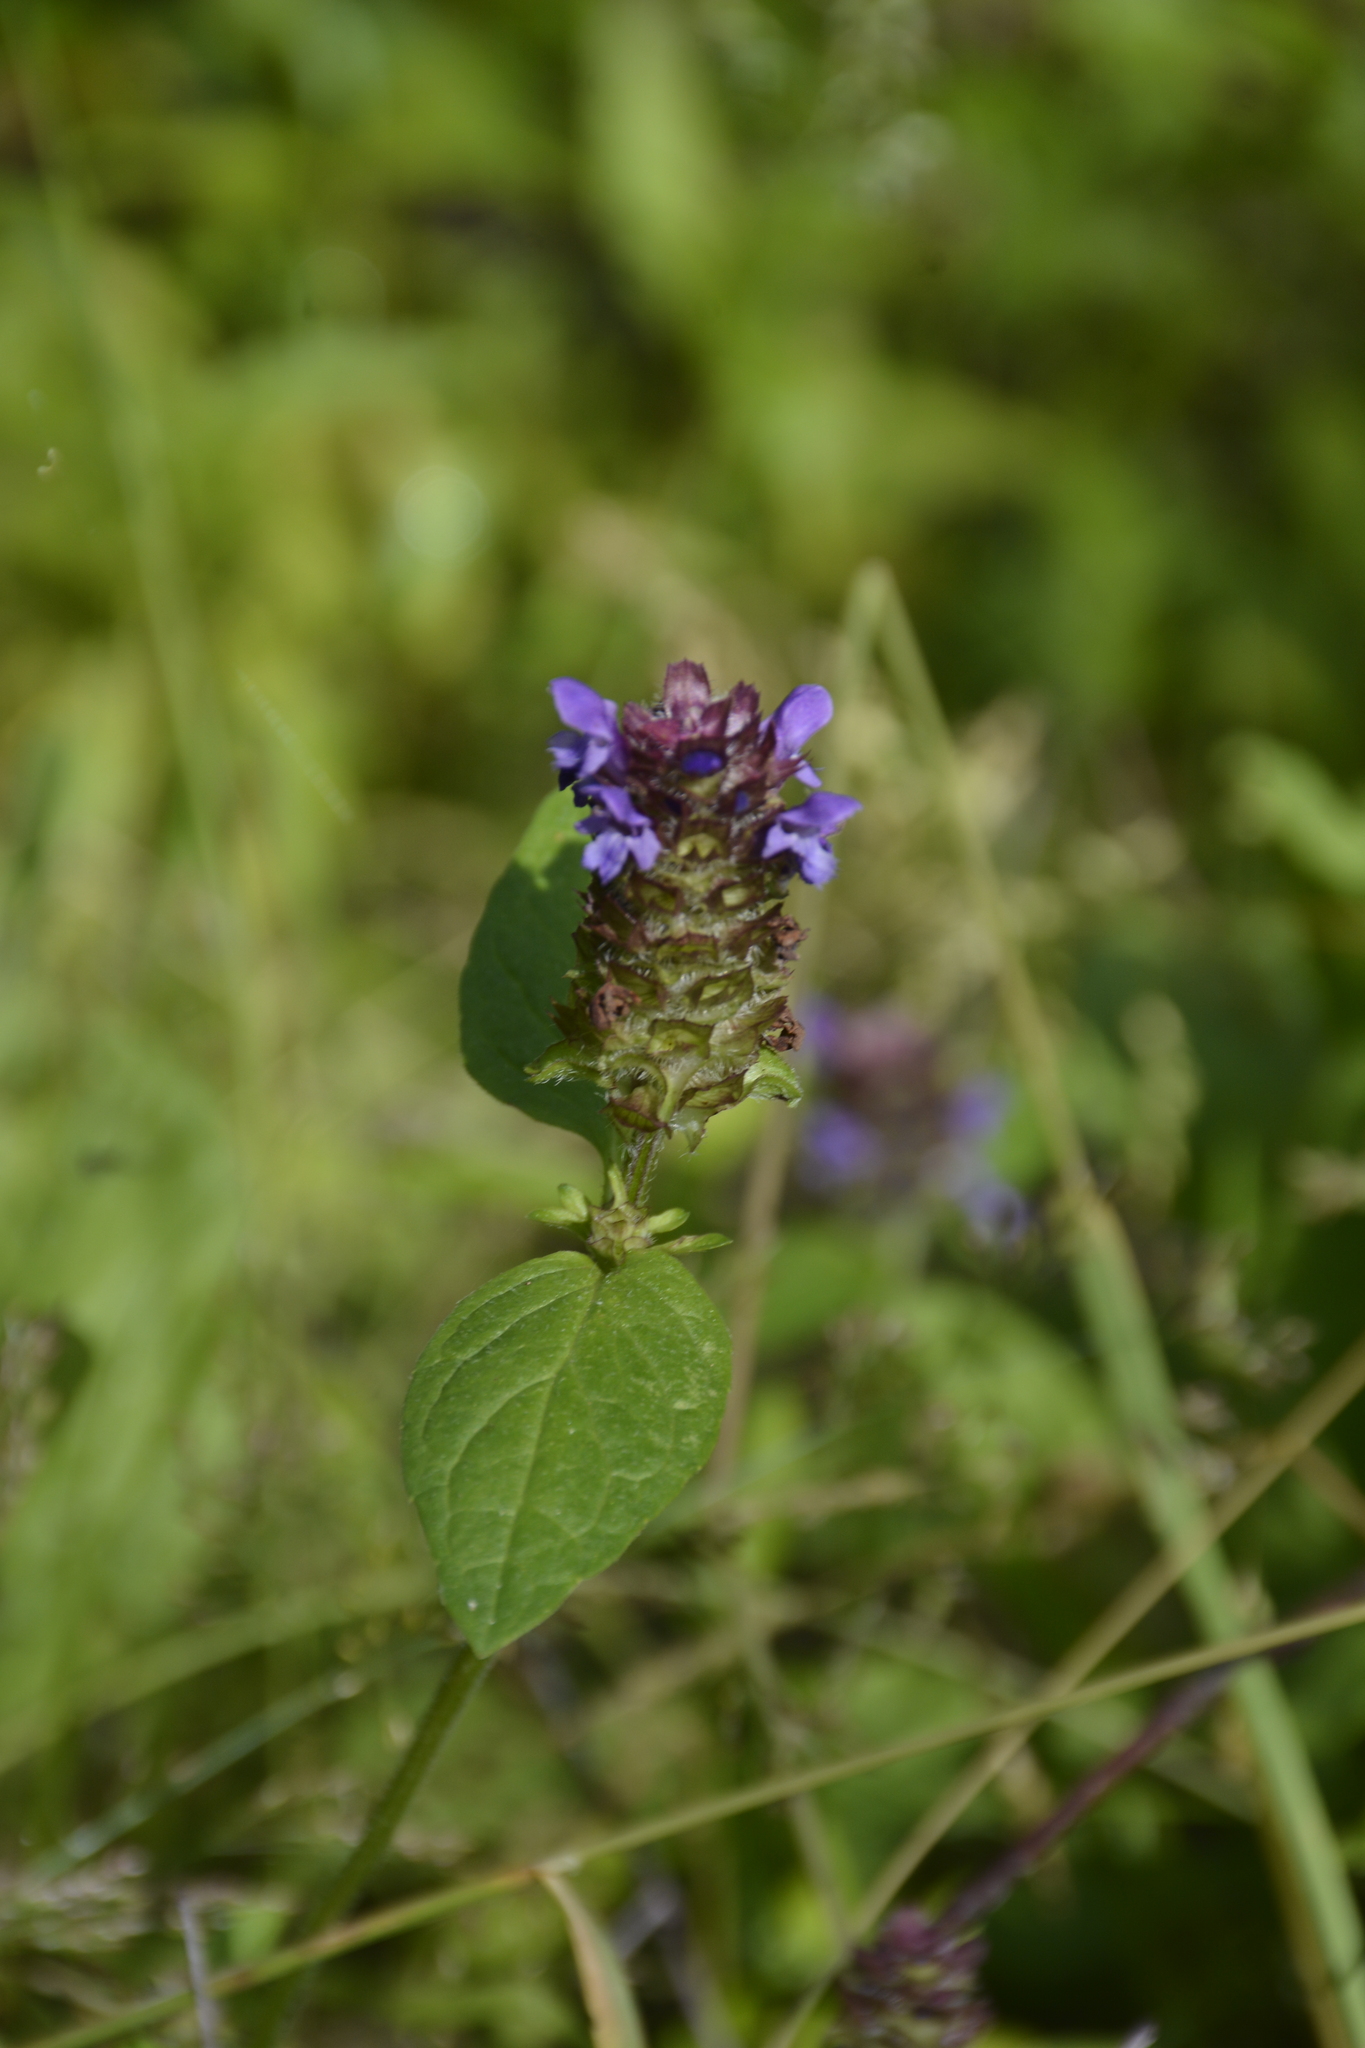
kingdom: Plantae
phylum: Tracheophyta
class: Magnoliopsida
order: Lamiales
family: Lamiaceae
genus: Prunella
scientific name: Prunella vulgaris
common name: Heal-all
